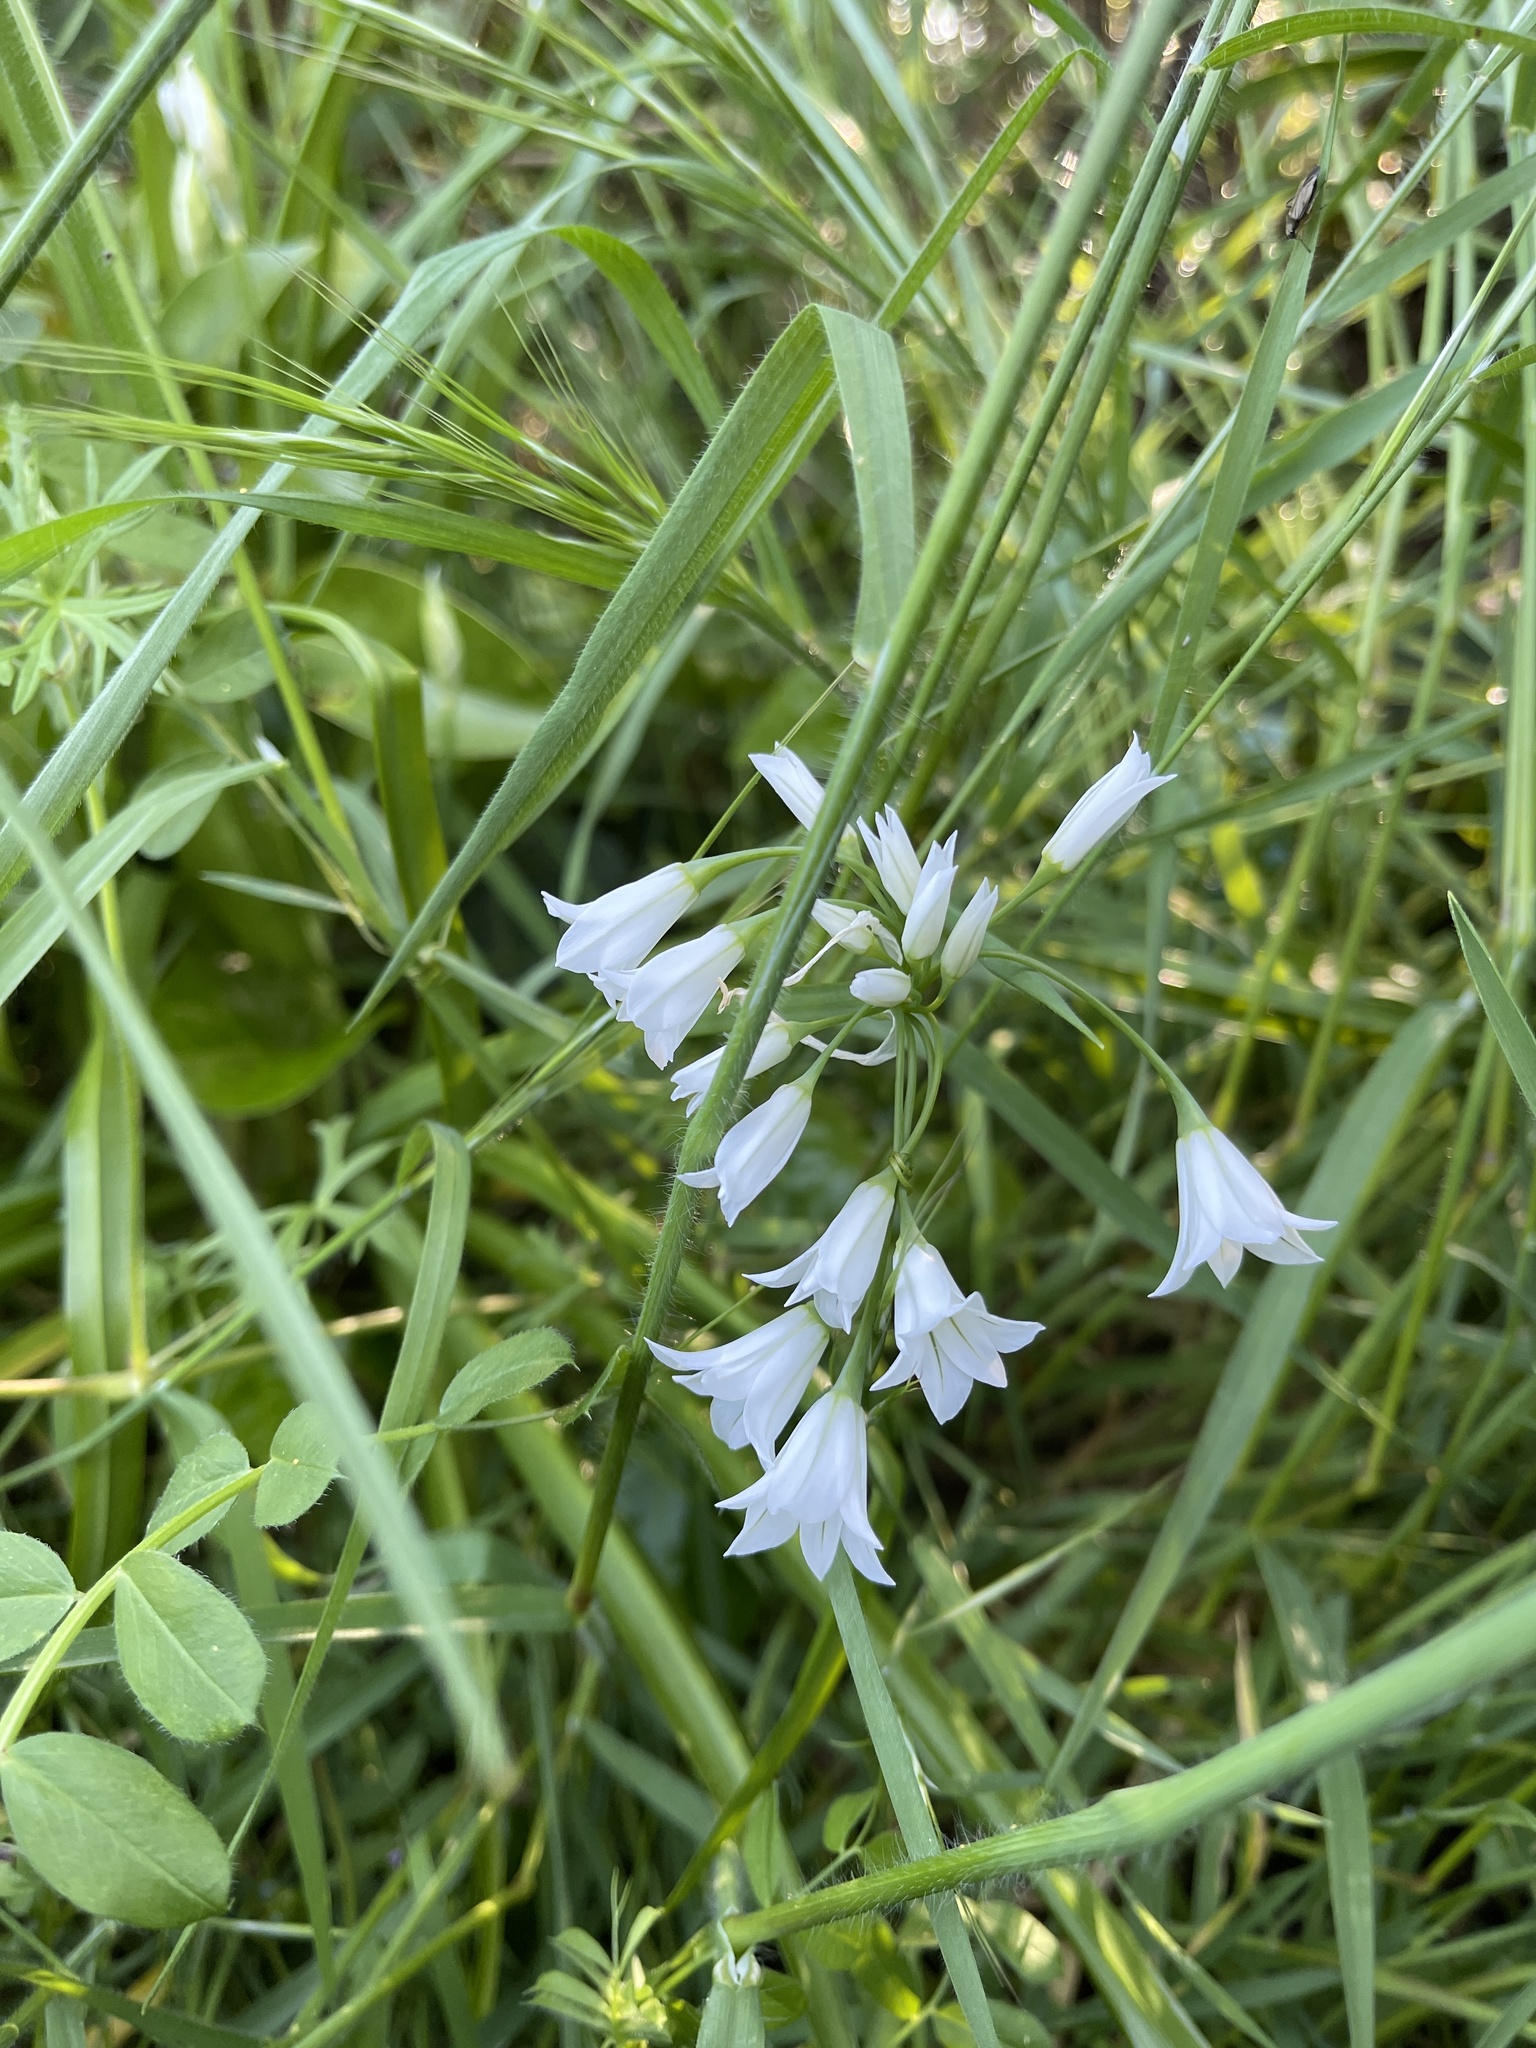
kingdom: Plantae
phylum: Tracheophyta
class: Liliopsida
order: Asparagales
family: Amaryllidaceae
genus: Allium
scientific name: Allium triquetrum
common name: Three-cornered garlic
